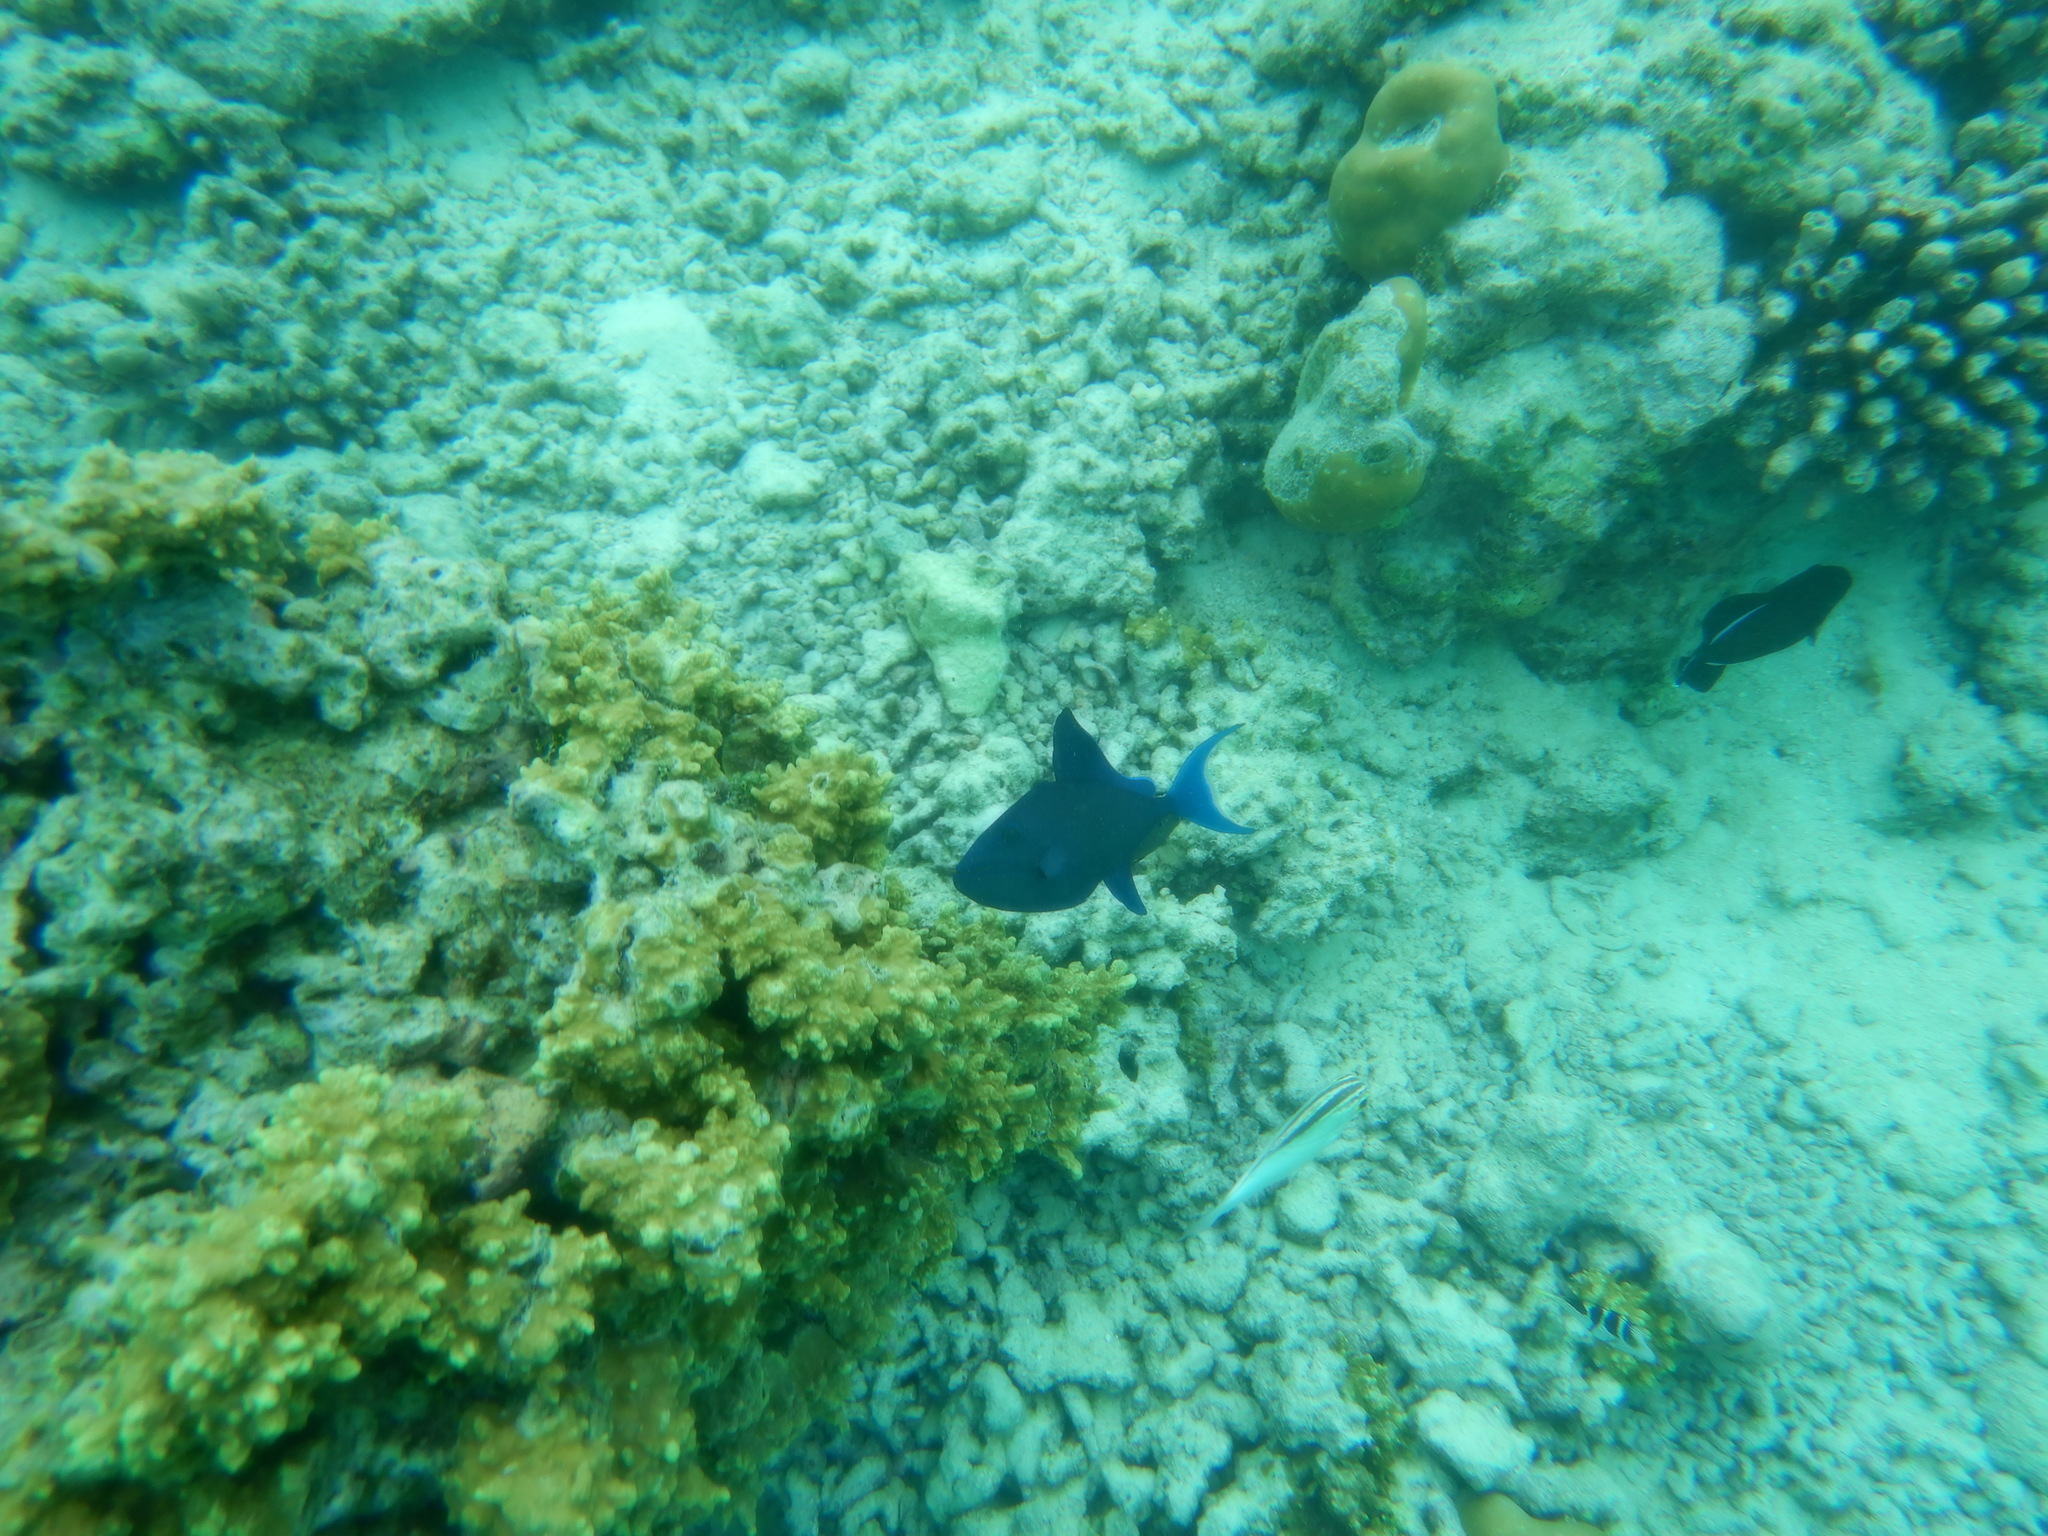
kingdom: Animalia
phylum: Chordata
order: Tetraodontiformes
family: Balistidae
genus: Odonus
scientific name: Odonus niger
